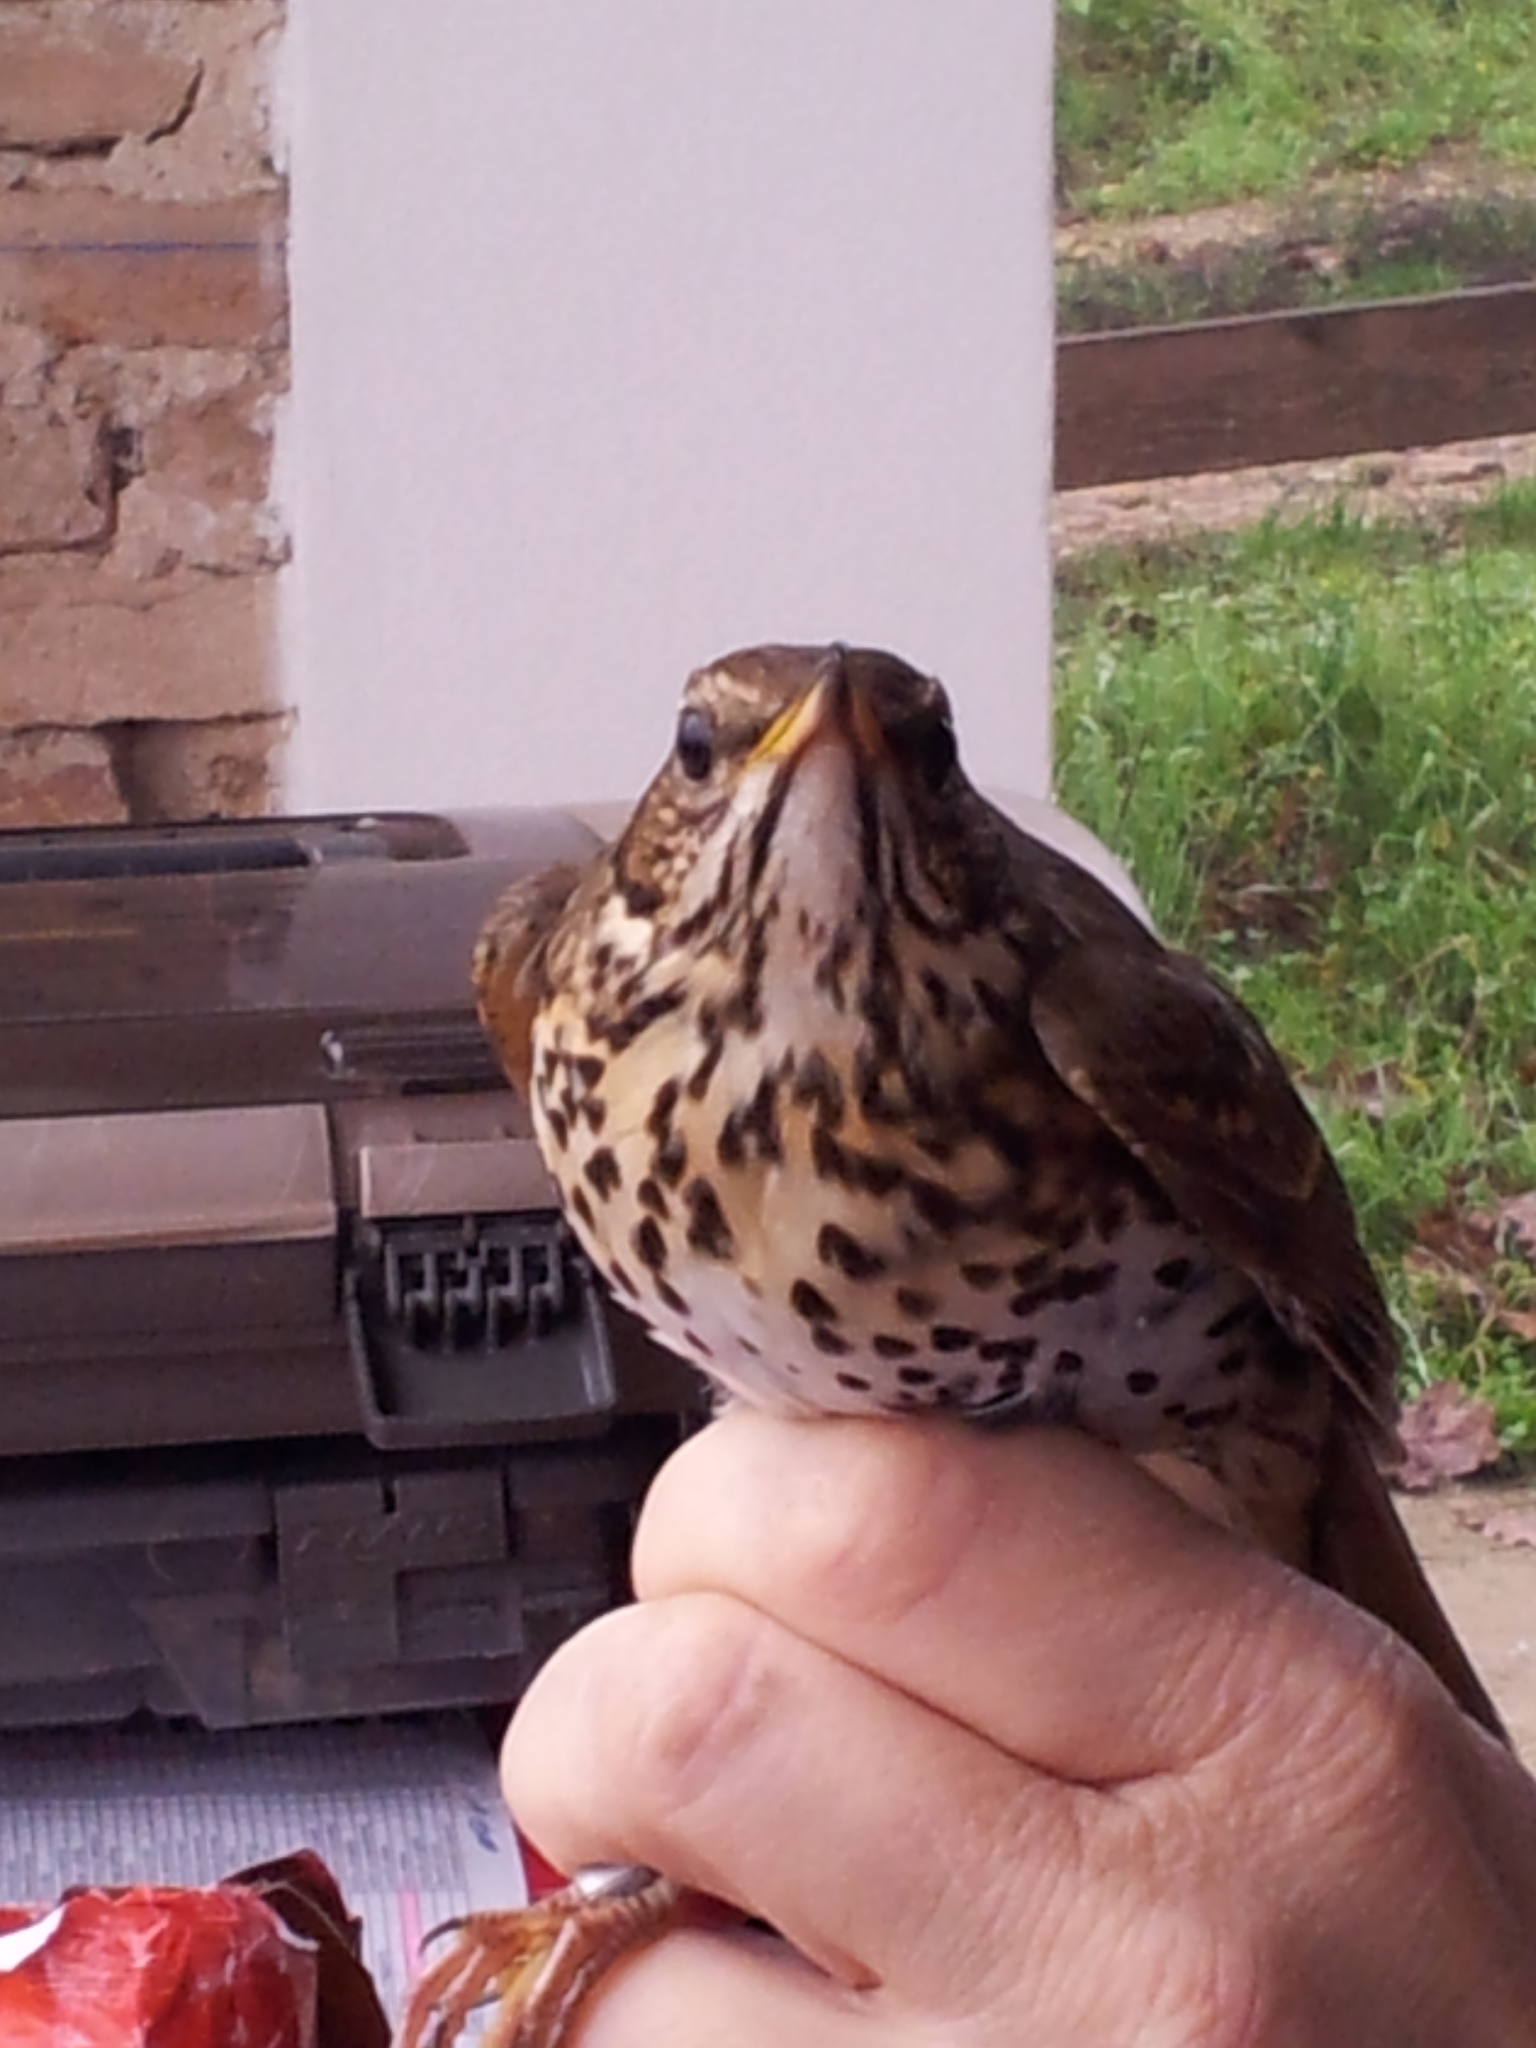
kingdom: Animalia
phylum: Chordata
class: Aves
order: Passeriformes
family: Turdidae
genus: Turdus
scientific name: Turdus philomelos
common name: Song thrush
